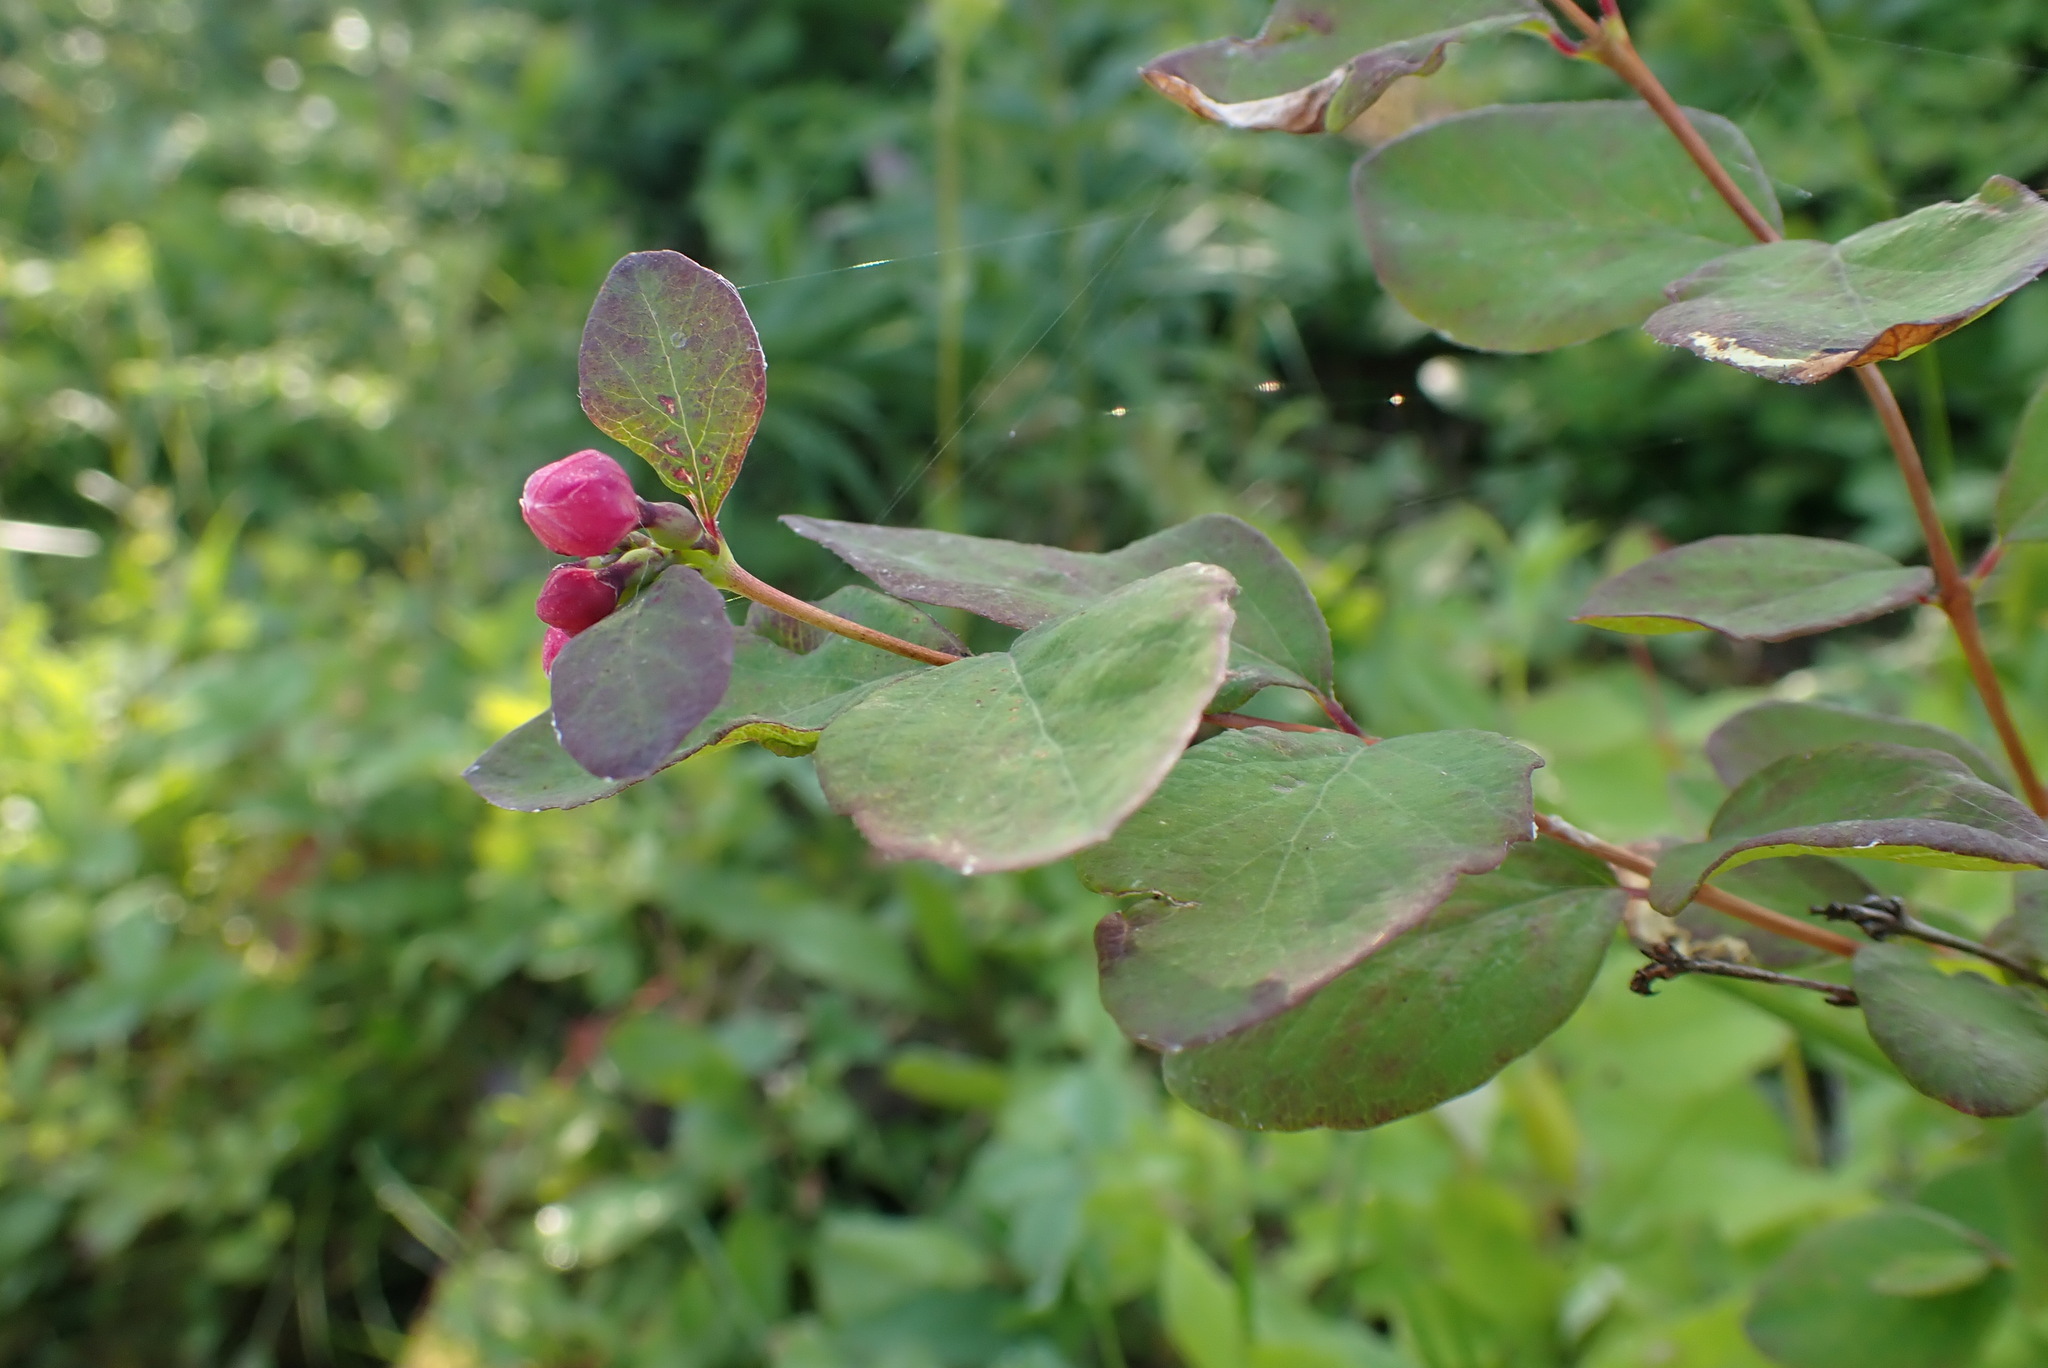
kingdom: Plantae
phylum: Tracheophyta
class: Magnoliopsida
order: Dipsacales
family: Caprifoliaceae
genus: Symphoricarpos
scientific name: Symphoricarpos albus
